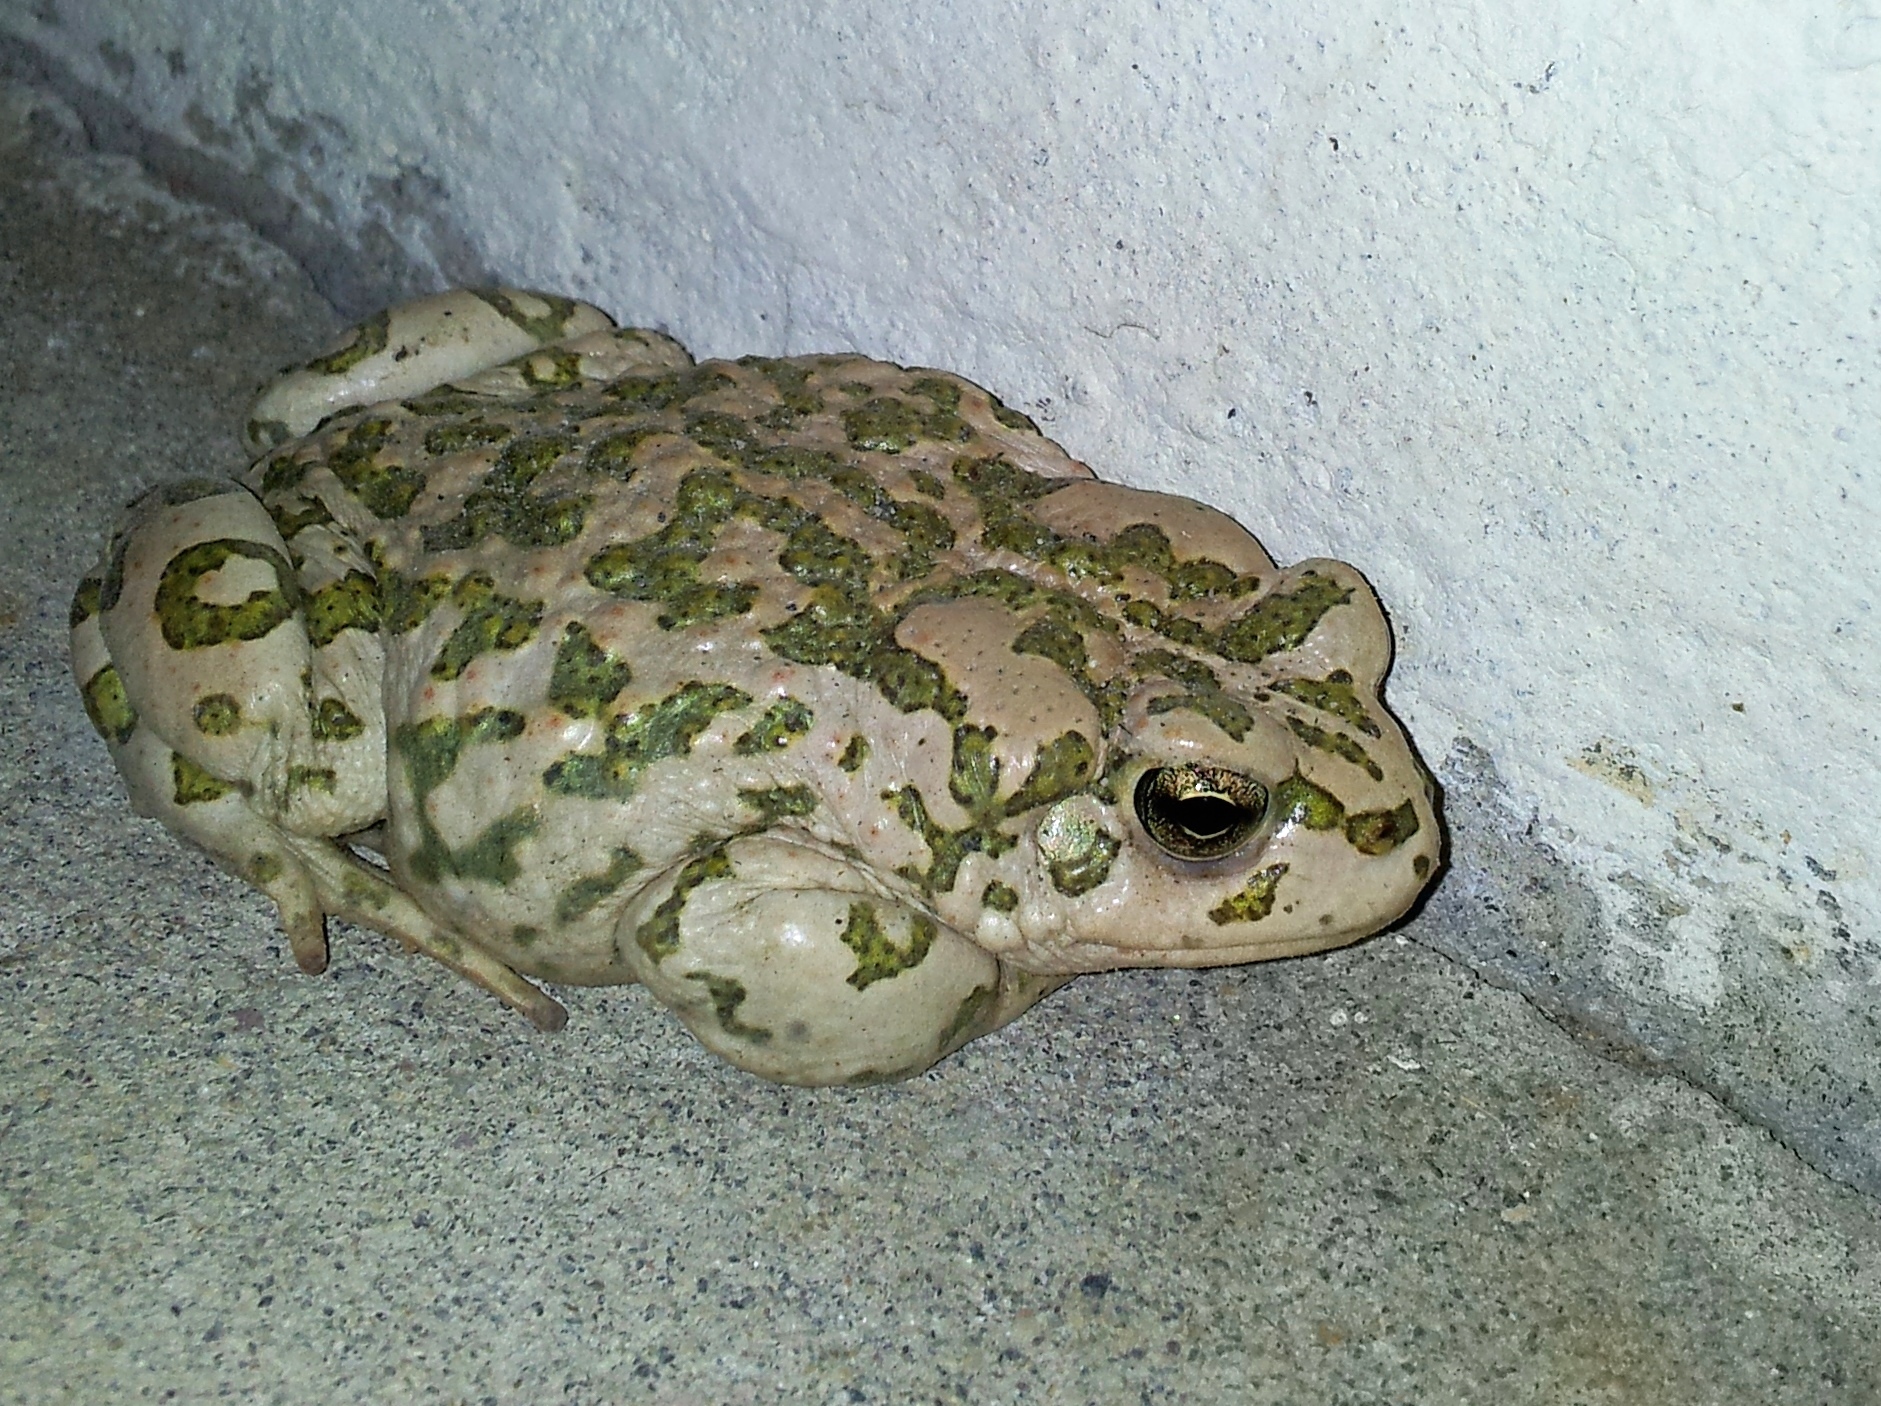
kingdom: Animalia
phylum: Chordata
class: Amphibia
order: Anura
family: Bufonidae
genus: Bufotes
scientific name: Bufotes turanensis
